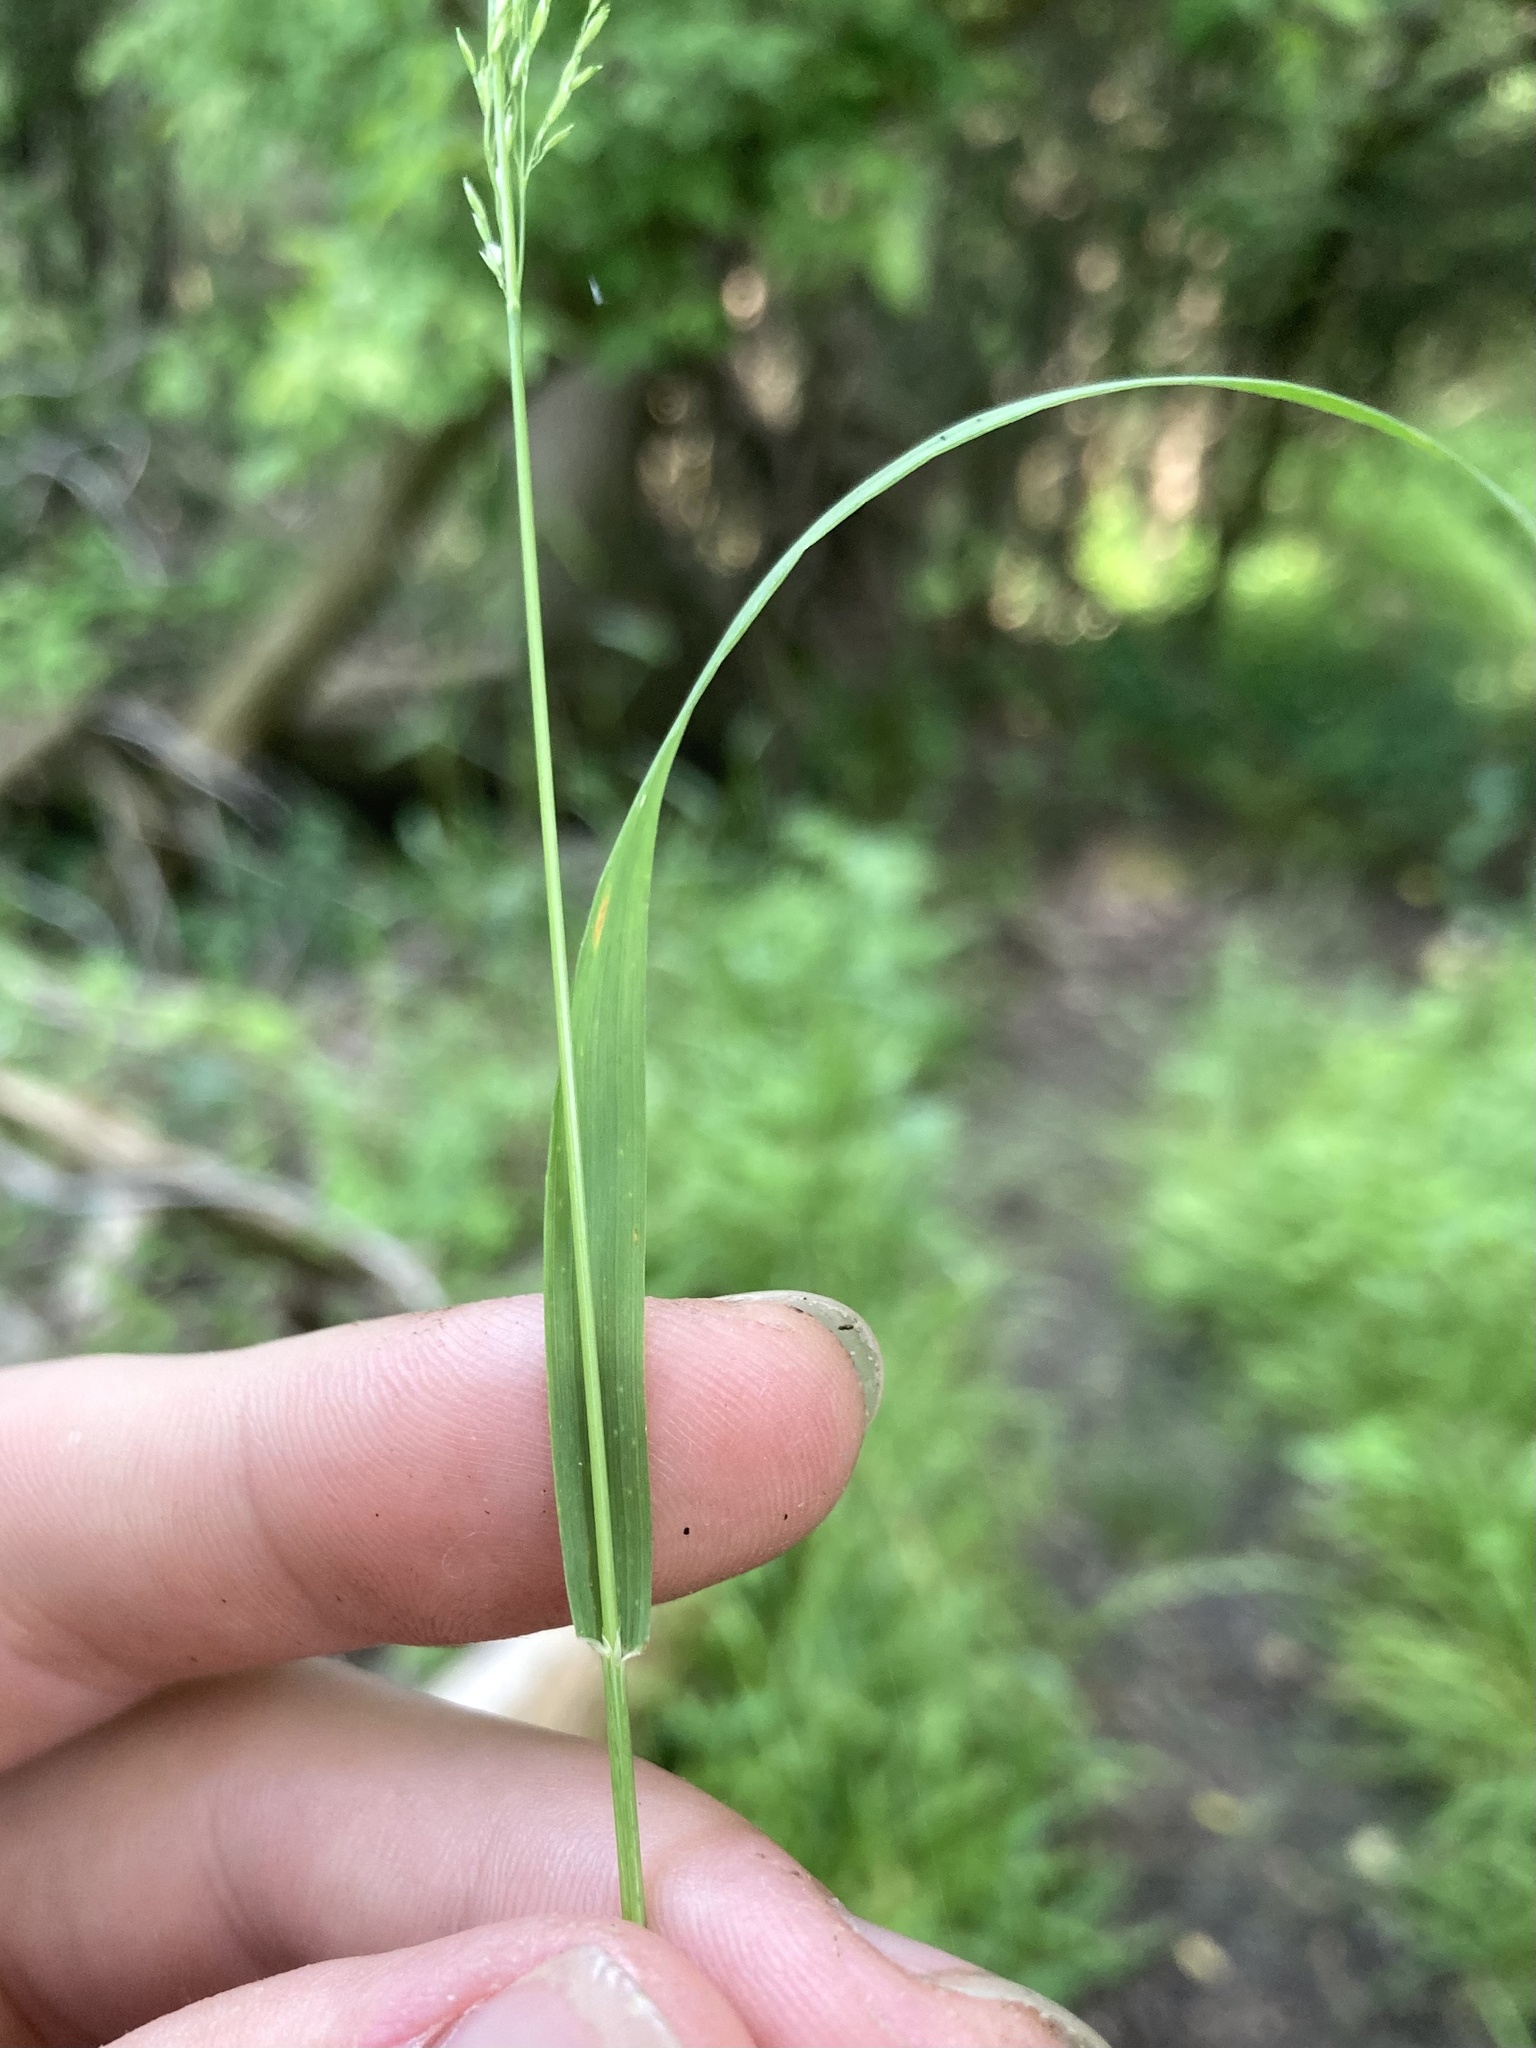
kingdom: Plantae
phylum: Tracheophyta
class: Liliopsida
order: Poales
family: Poaceae
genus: Sphenopholis
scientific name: Sphenopholis intermedia
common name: Intermediate eaton's grass
